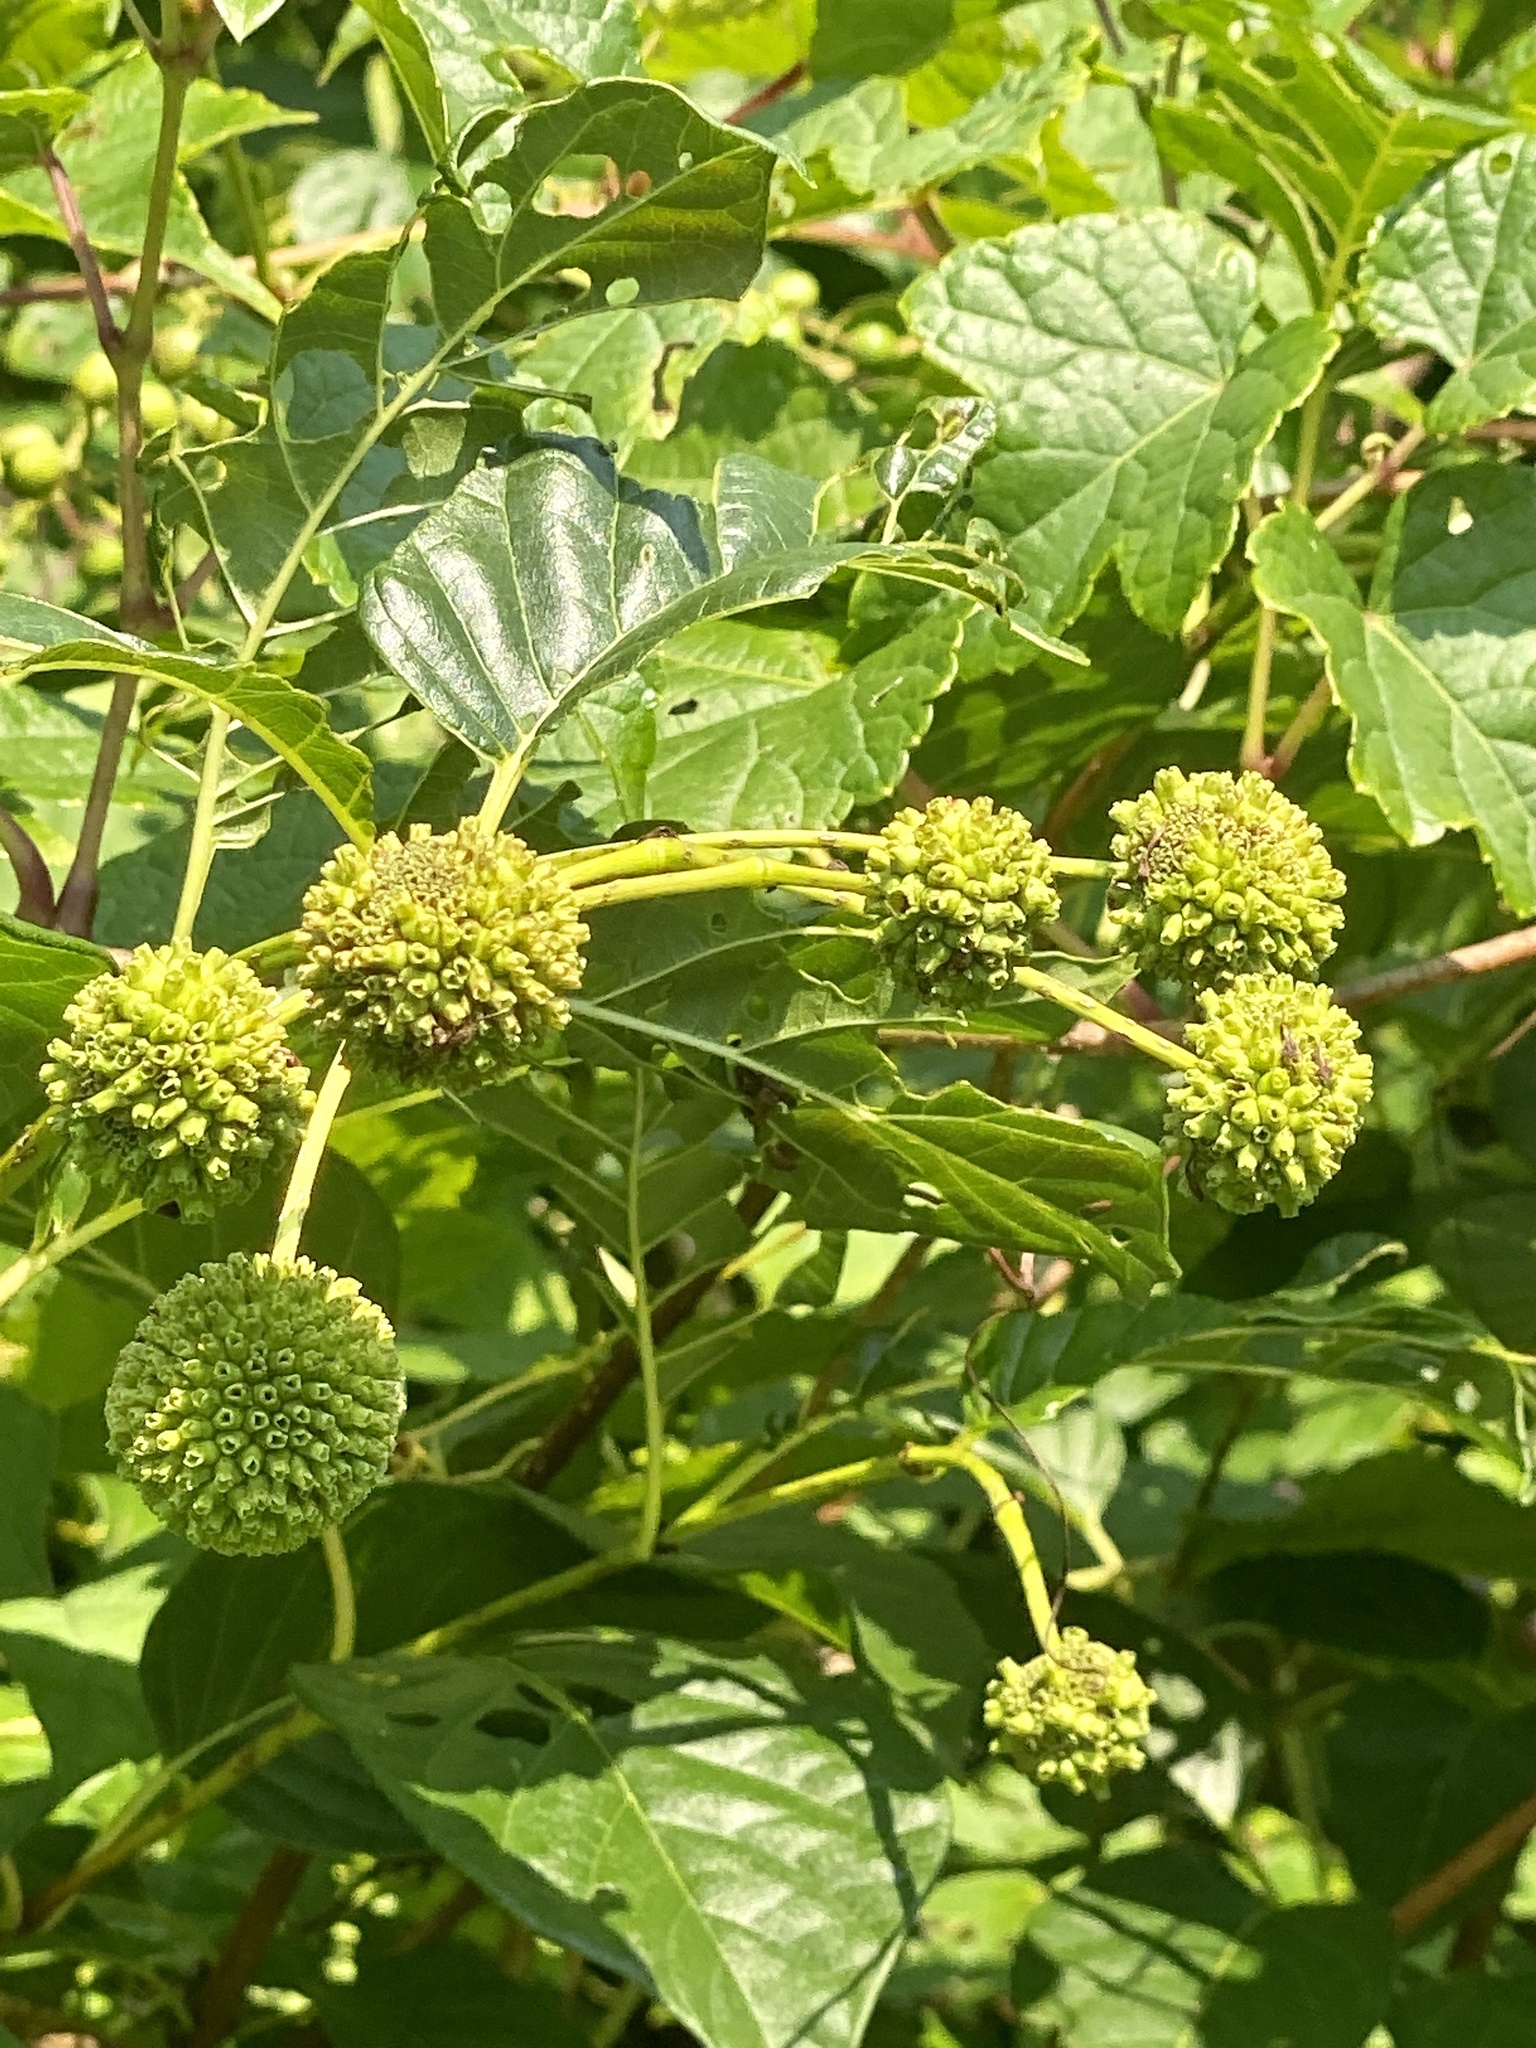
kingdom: Plantae
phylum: Tracheophyta
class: Magnoliopsida
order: Gentianales
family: Rubiaceae
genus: Cephalanthus
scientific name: Cephalanthus occidentalis
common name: Button-willow
